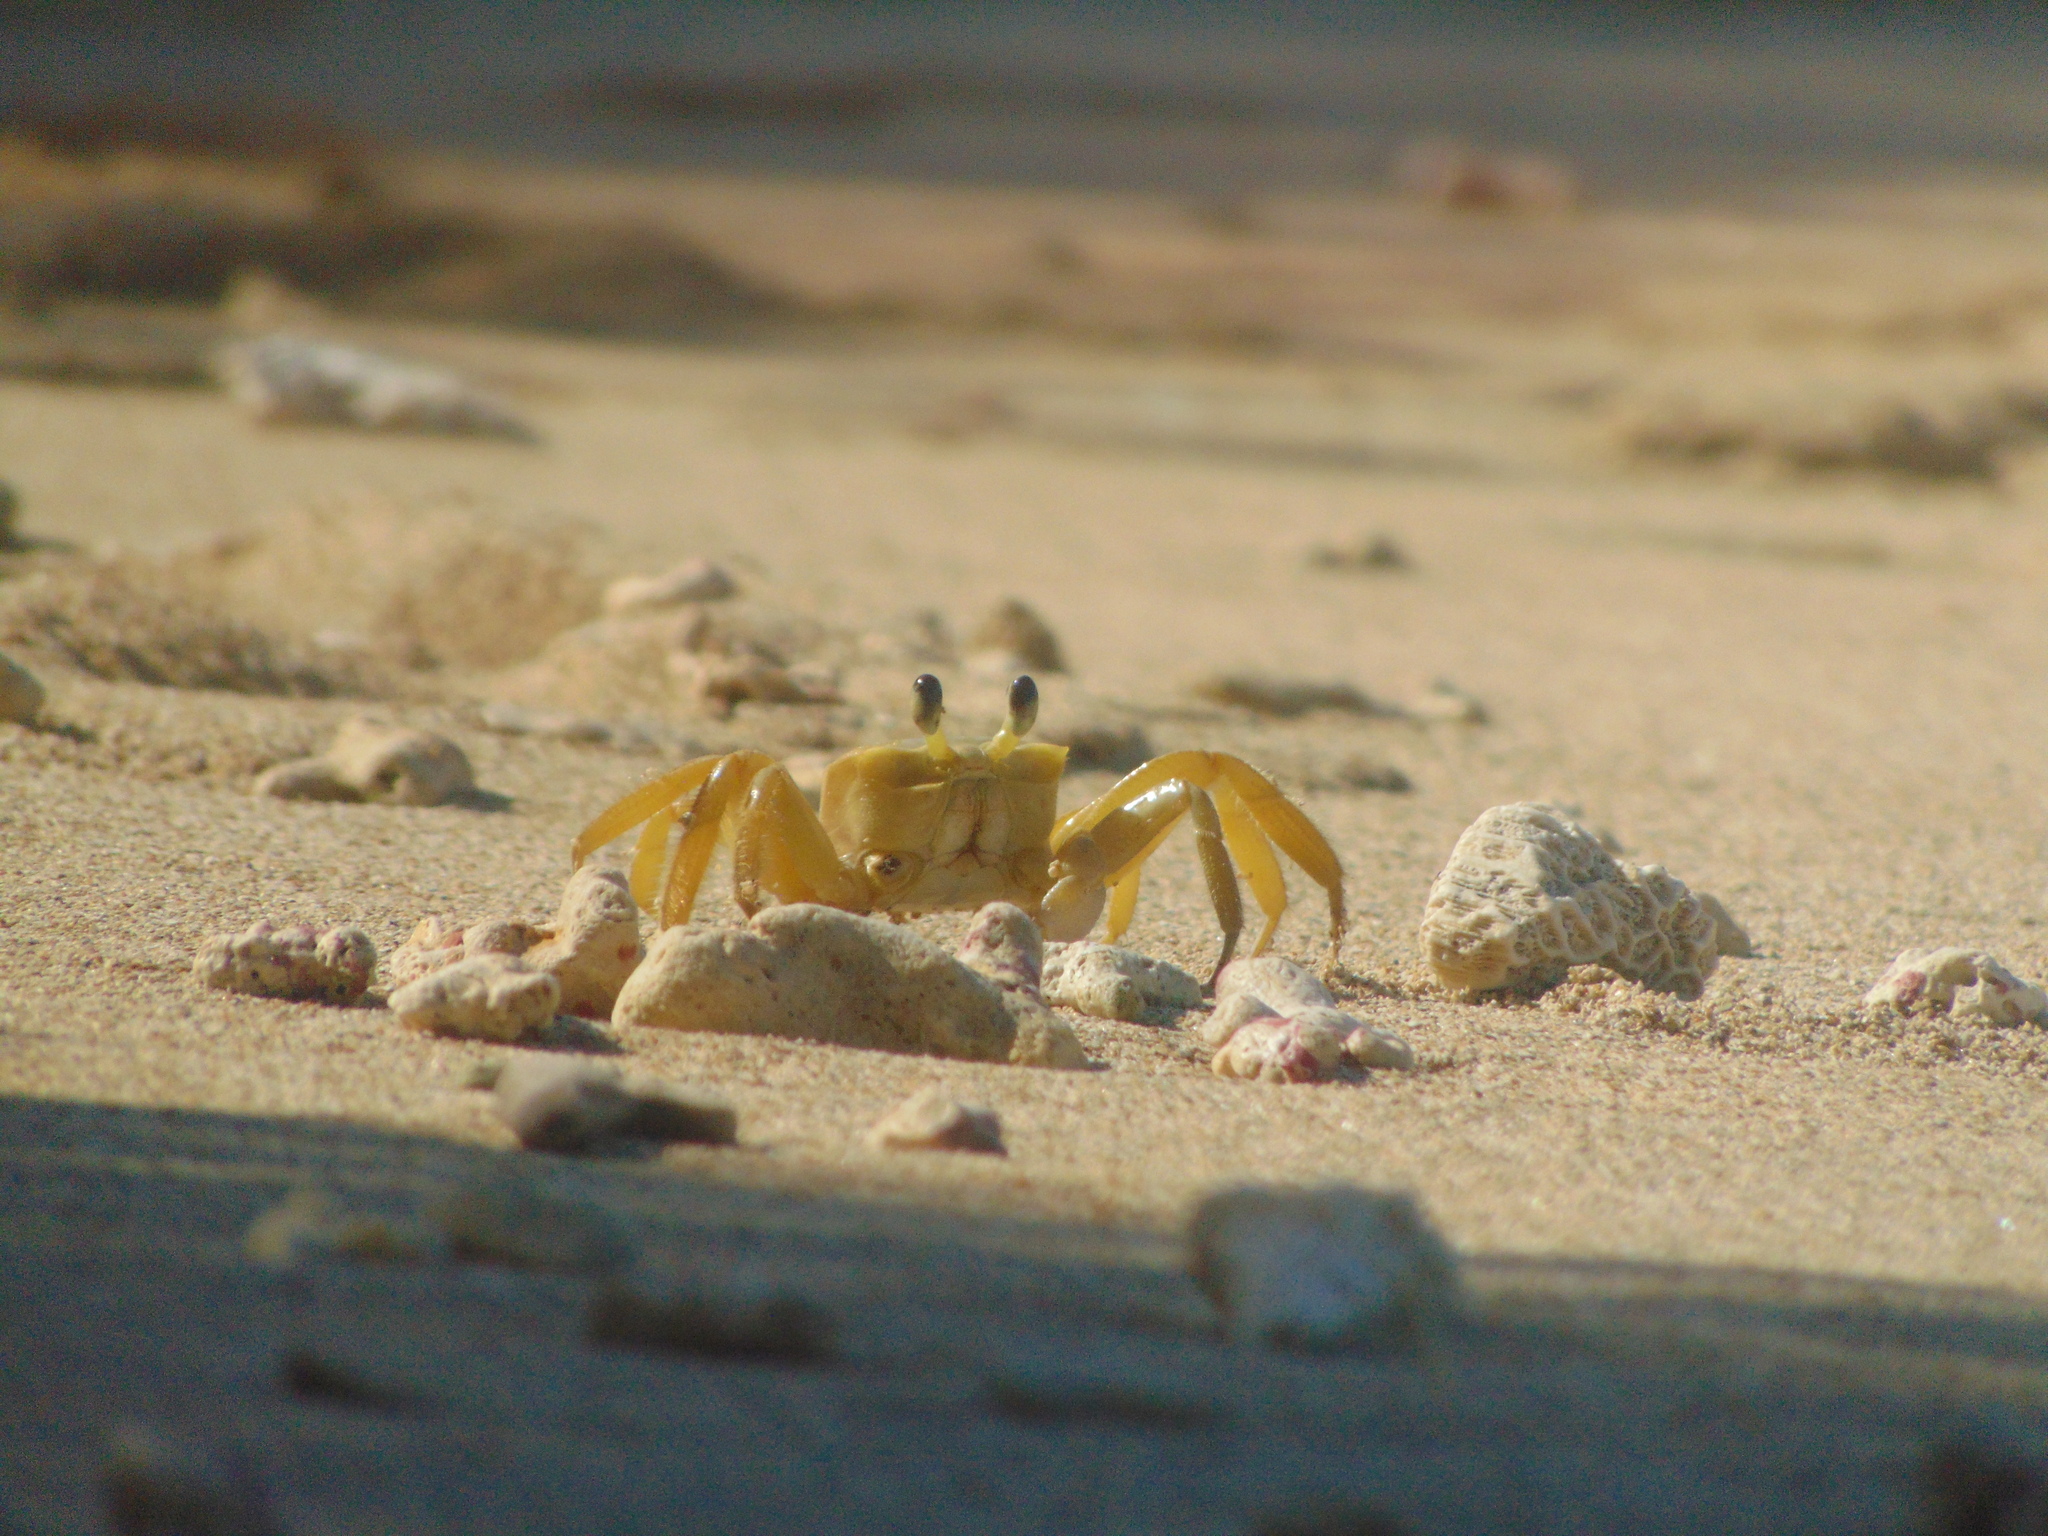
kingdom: Animalia
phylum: Arthropoda
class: Malacostraca
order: Decapoda
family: Ocypodidae
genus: Ocypode
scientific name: Ocypode quadrata
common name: Ghost crab
